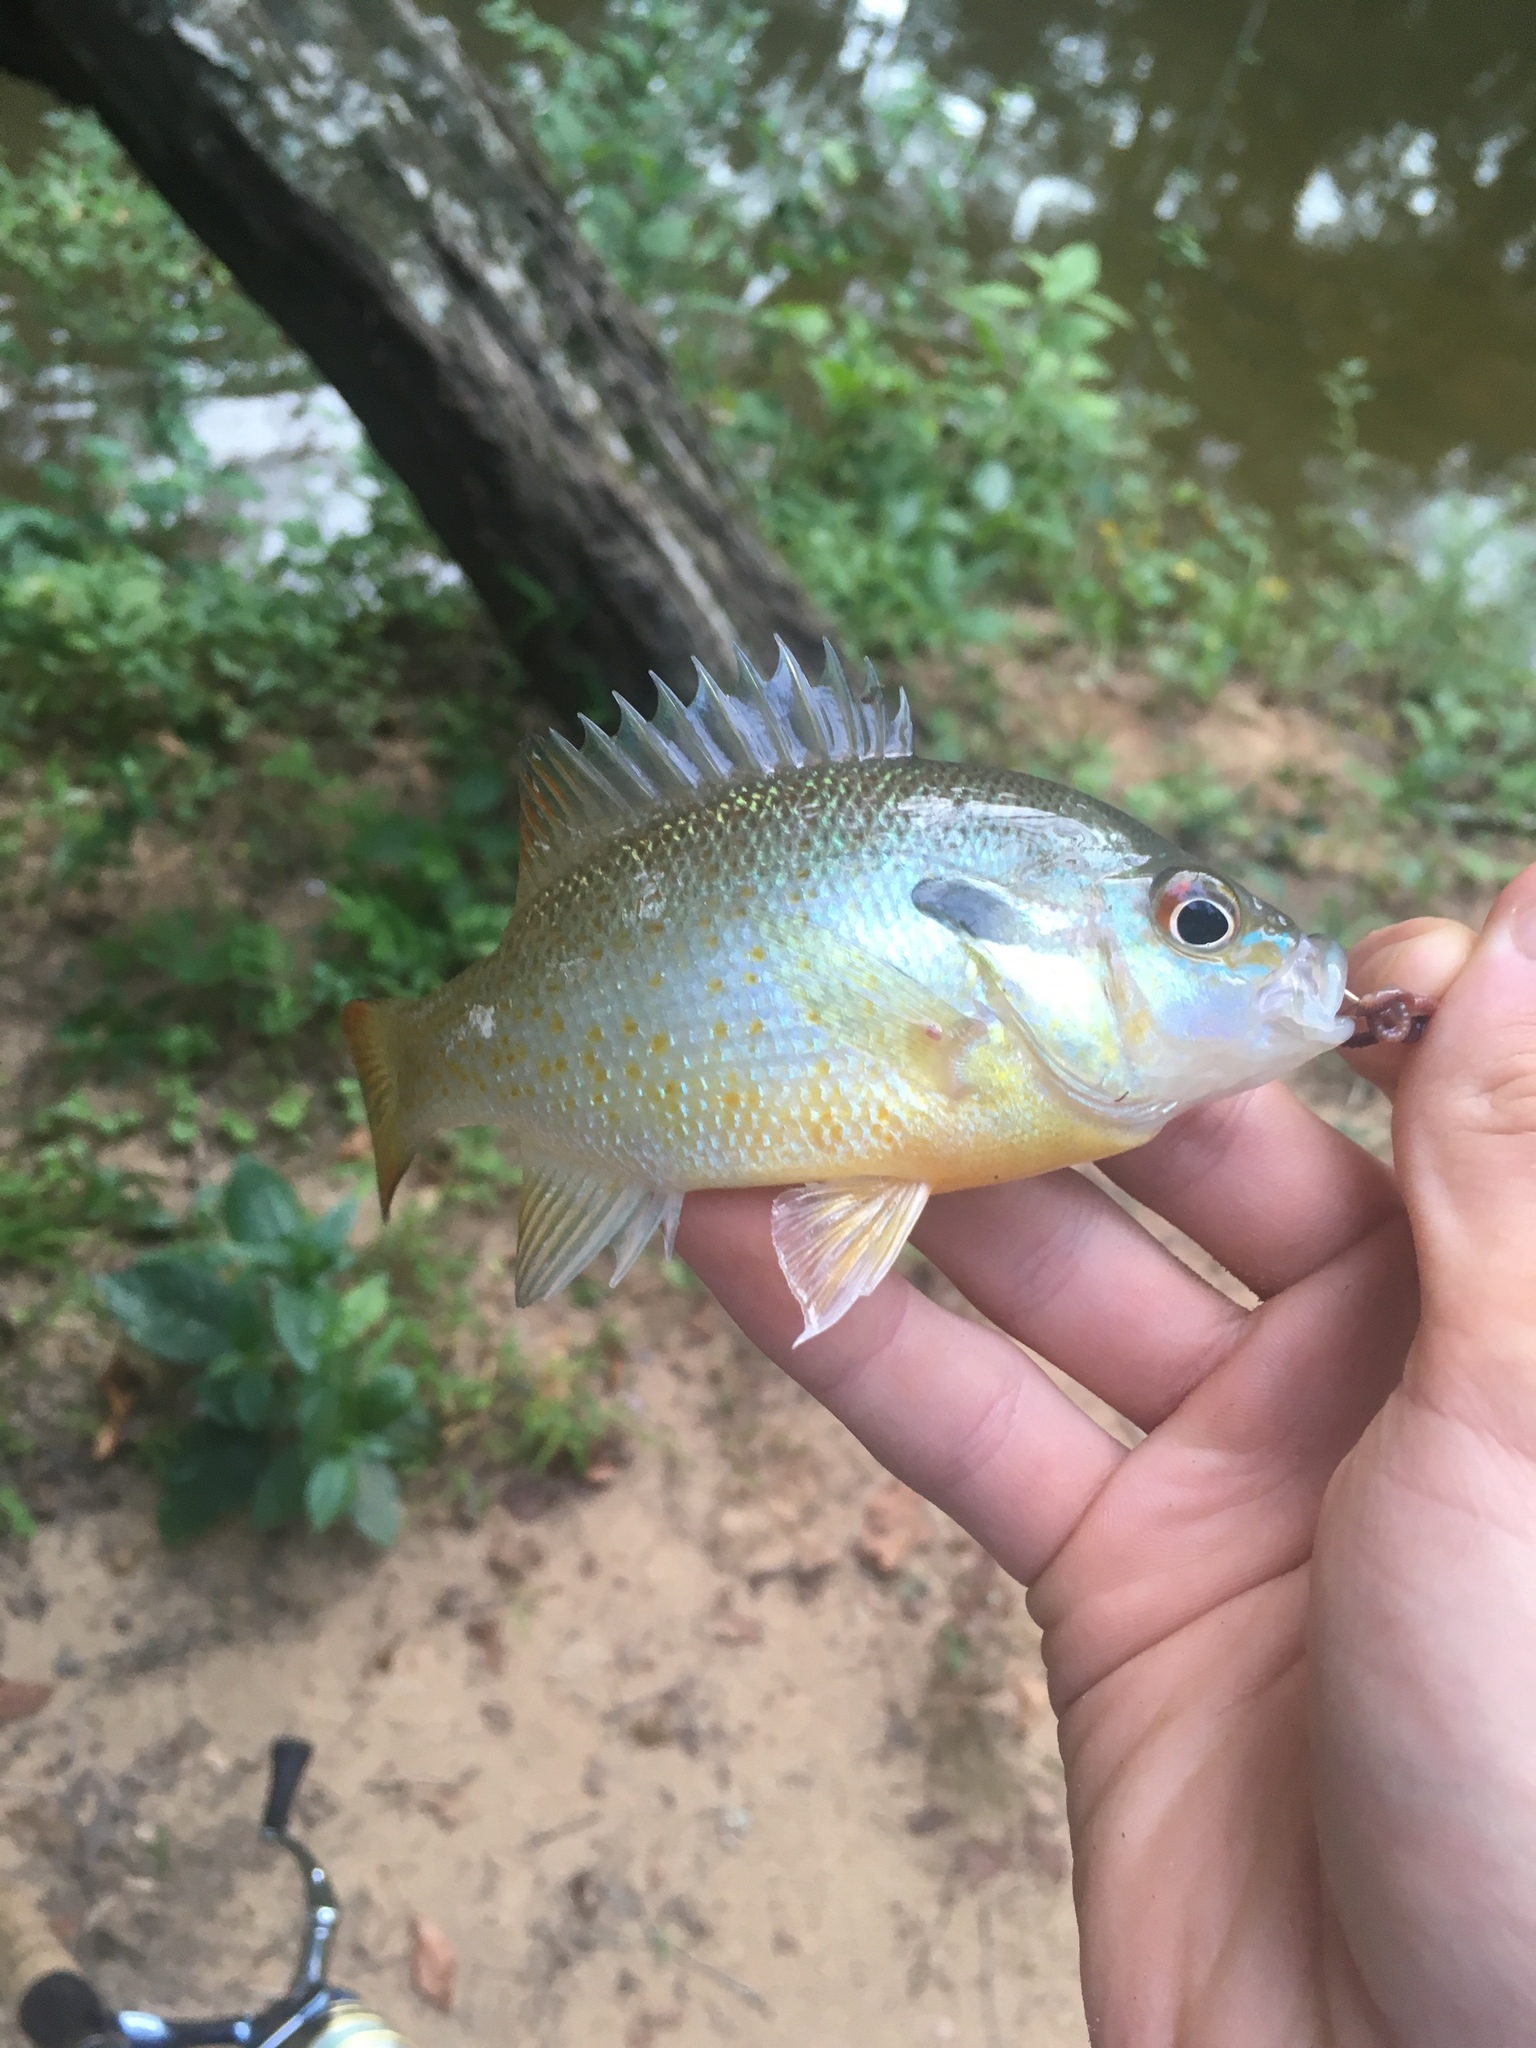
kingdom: Animalia
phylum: Chordata
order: Perciformes
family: Centrarchidae
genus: Lepomis
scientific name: Lepomis auritus
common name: Redbreast sunfish
